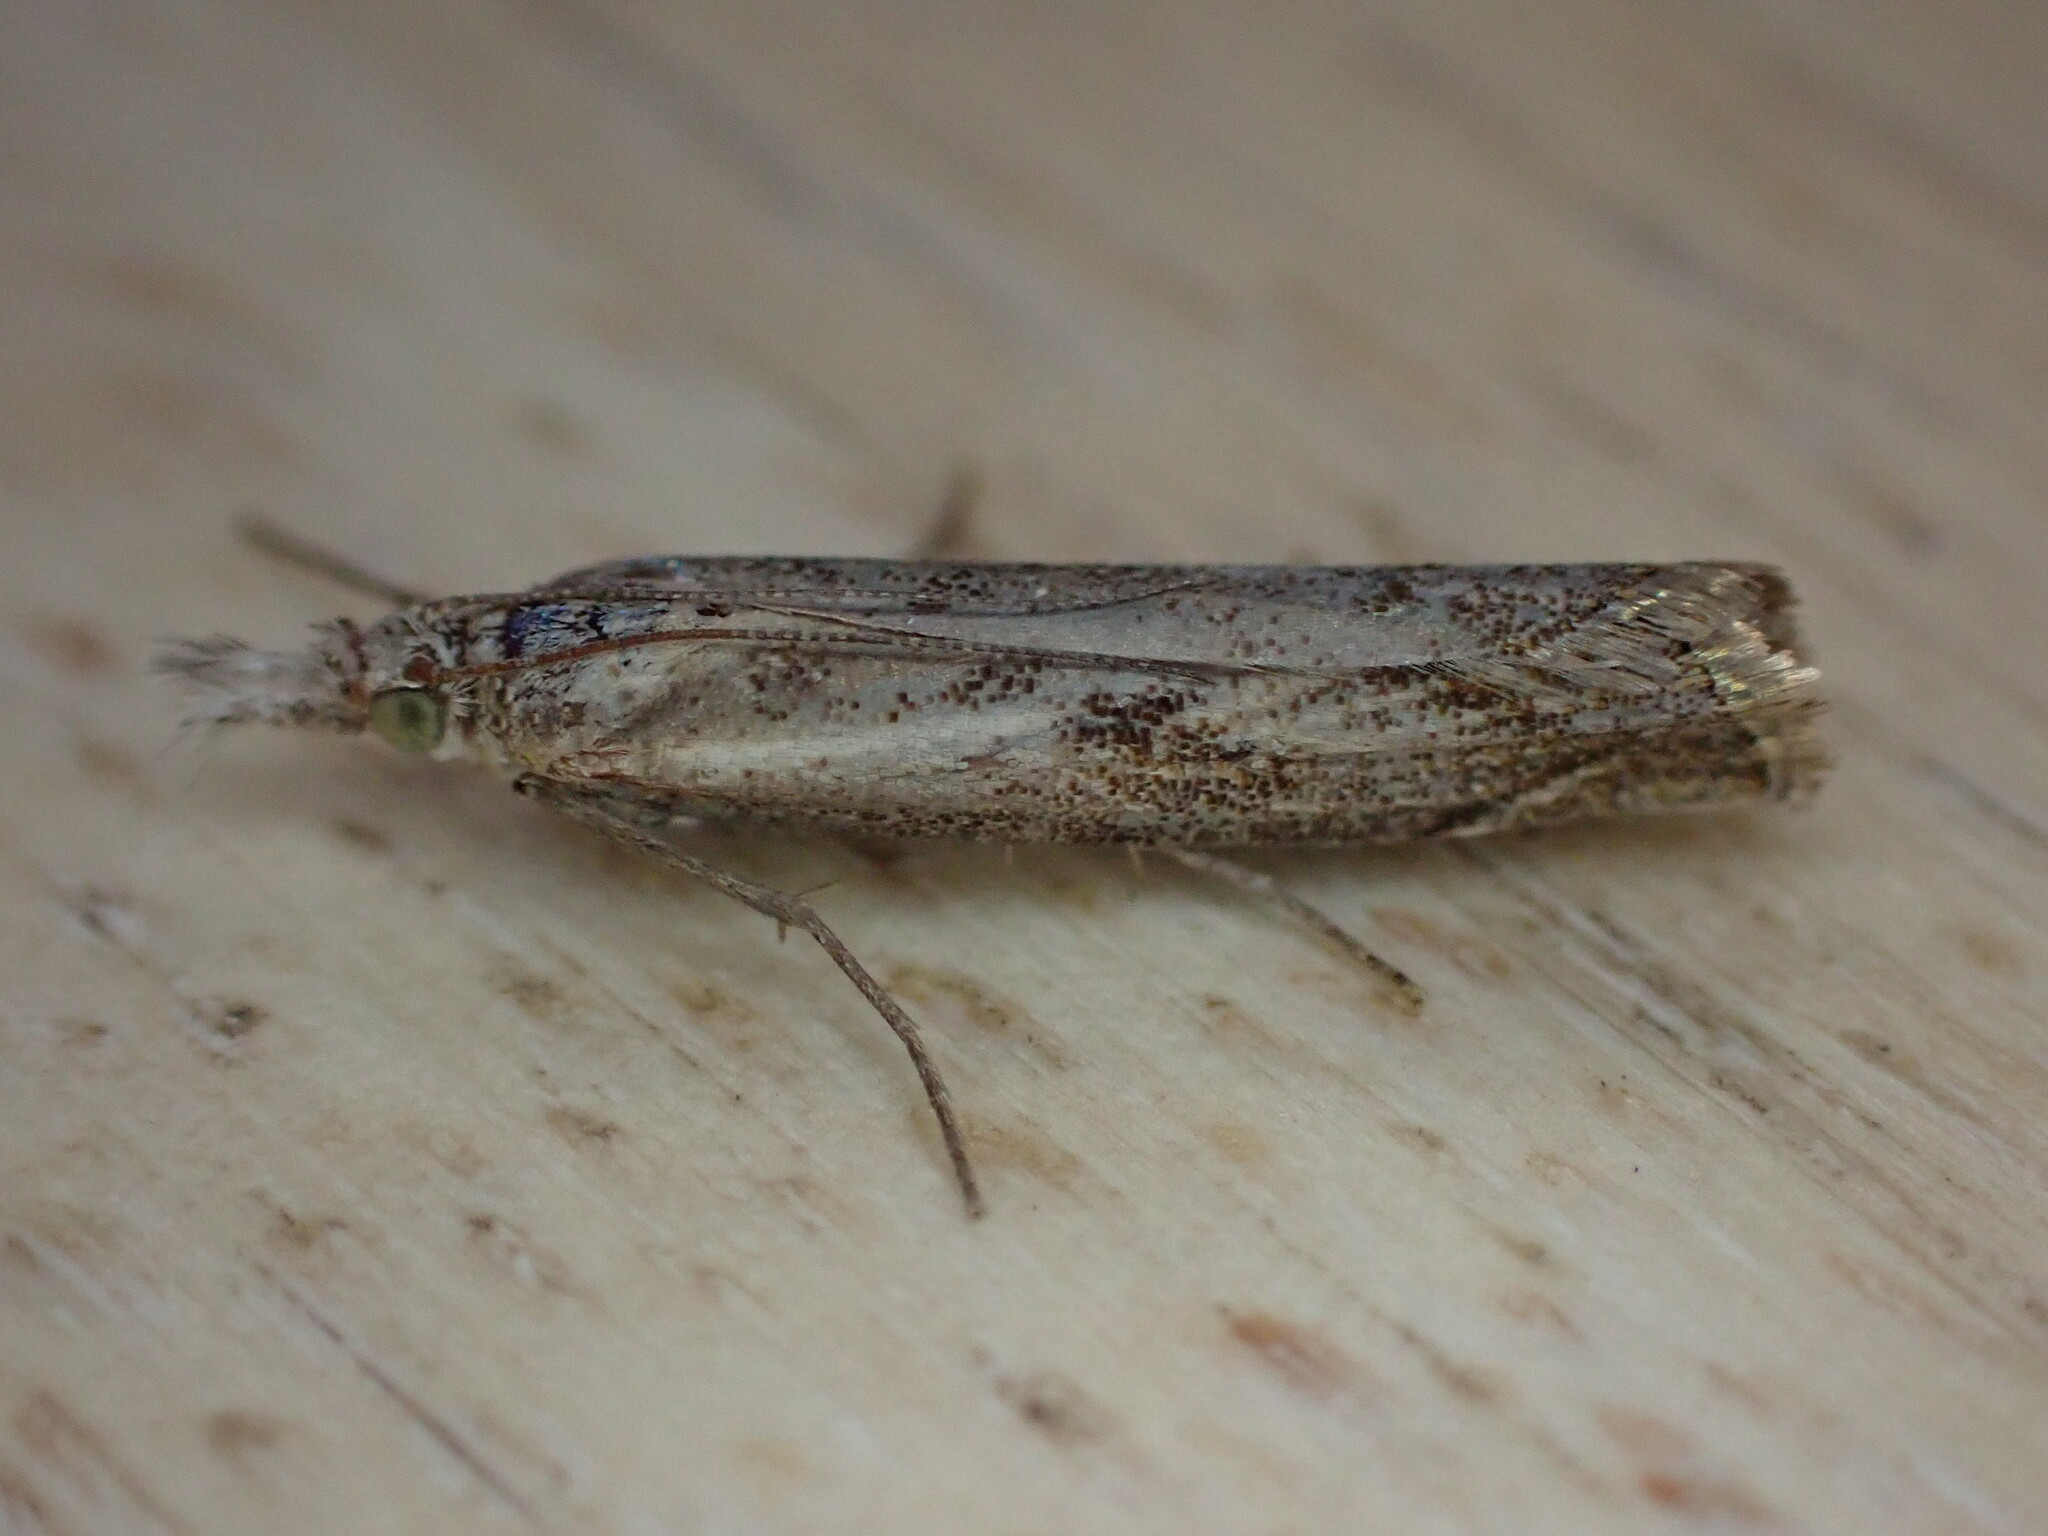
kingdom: Animalia
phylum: Arthropoda
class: Insecta
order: Lepidoptera
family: Crambidae
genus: Agriphila
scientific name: Agriphila geniculea
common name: Elbow-stripe grass-veneer
